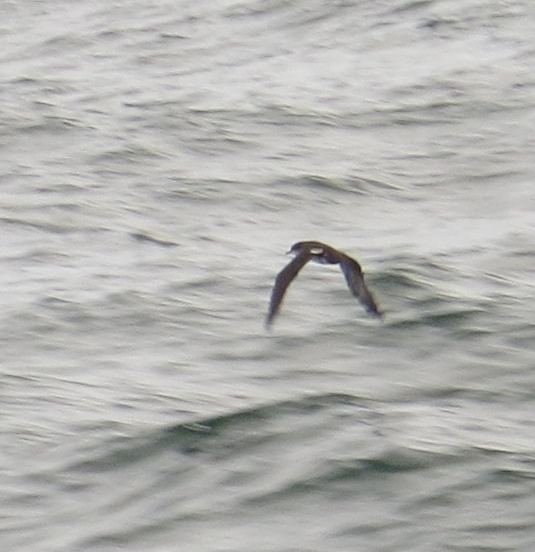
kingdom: Animalia
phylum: Chordata
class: Aves
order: Procellariiformes
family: Procellariidae
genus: Puffinus
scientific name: Puffinus subalaris
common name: Galapagos shearwater
